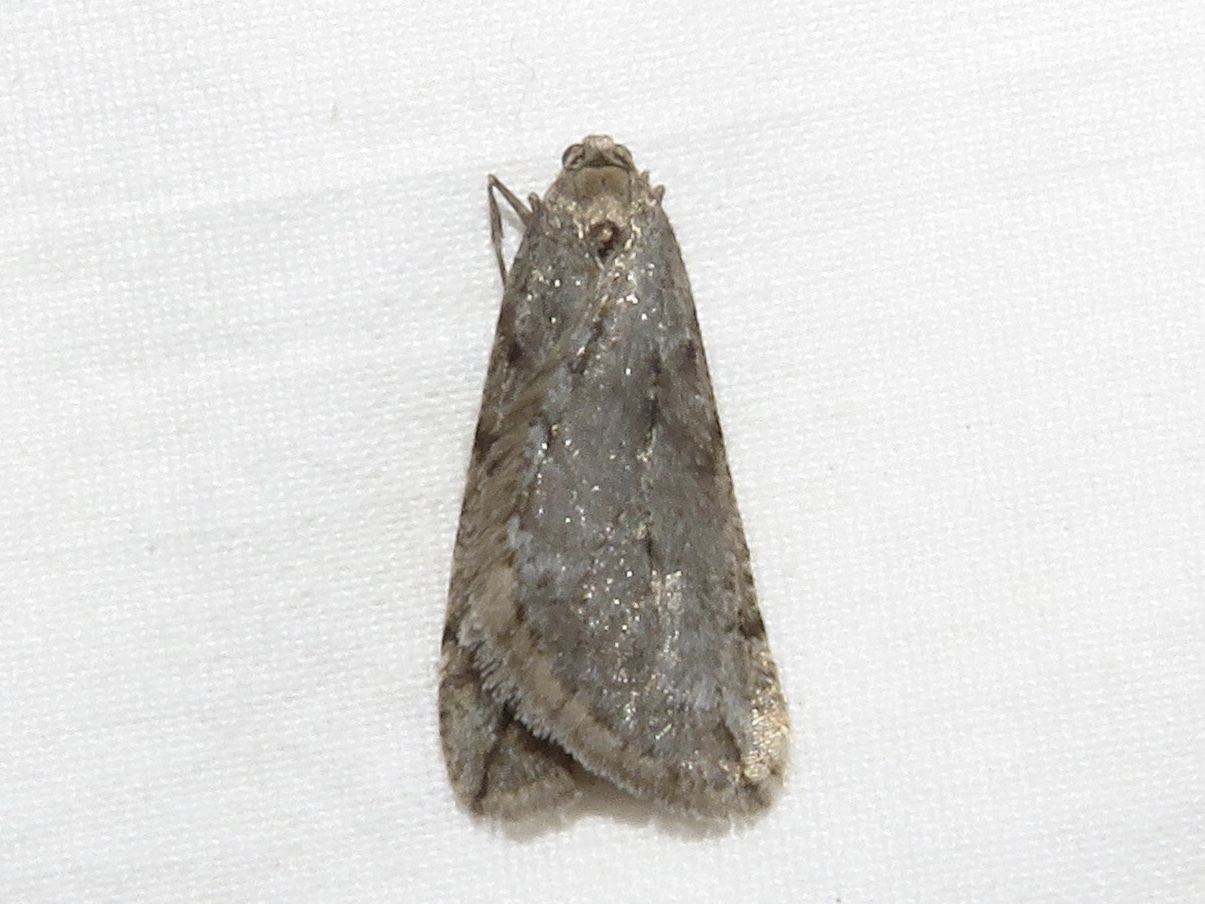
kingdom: Animalia
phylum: Arthropoda
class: Insecta
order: Lepidoptera
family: Geometridae
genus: Paleacrita
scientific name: Paleacrita vernata
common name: Spring cankerworm
